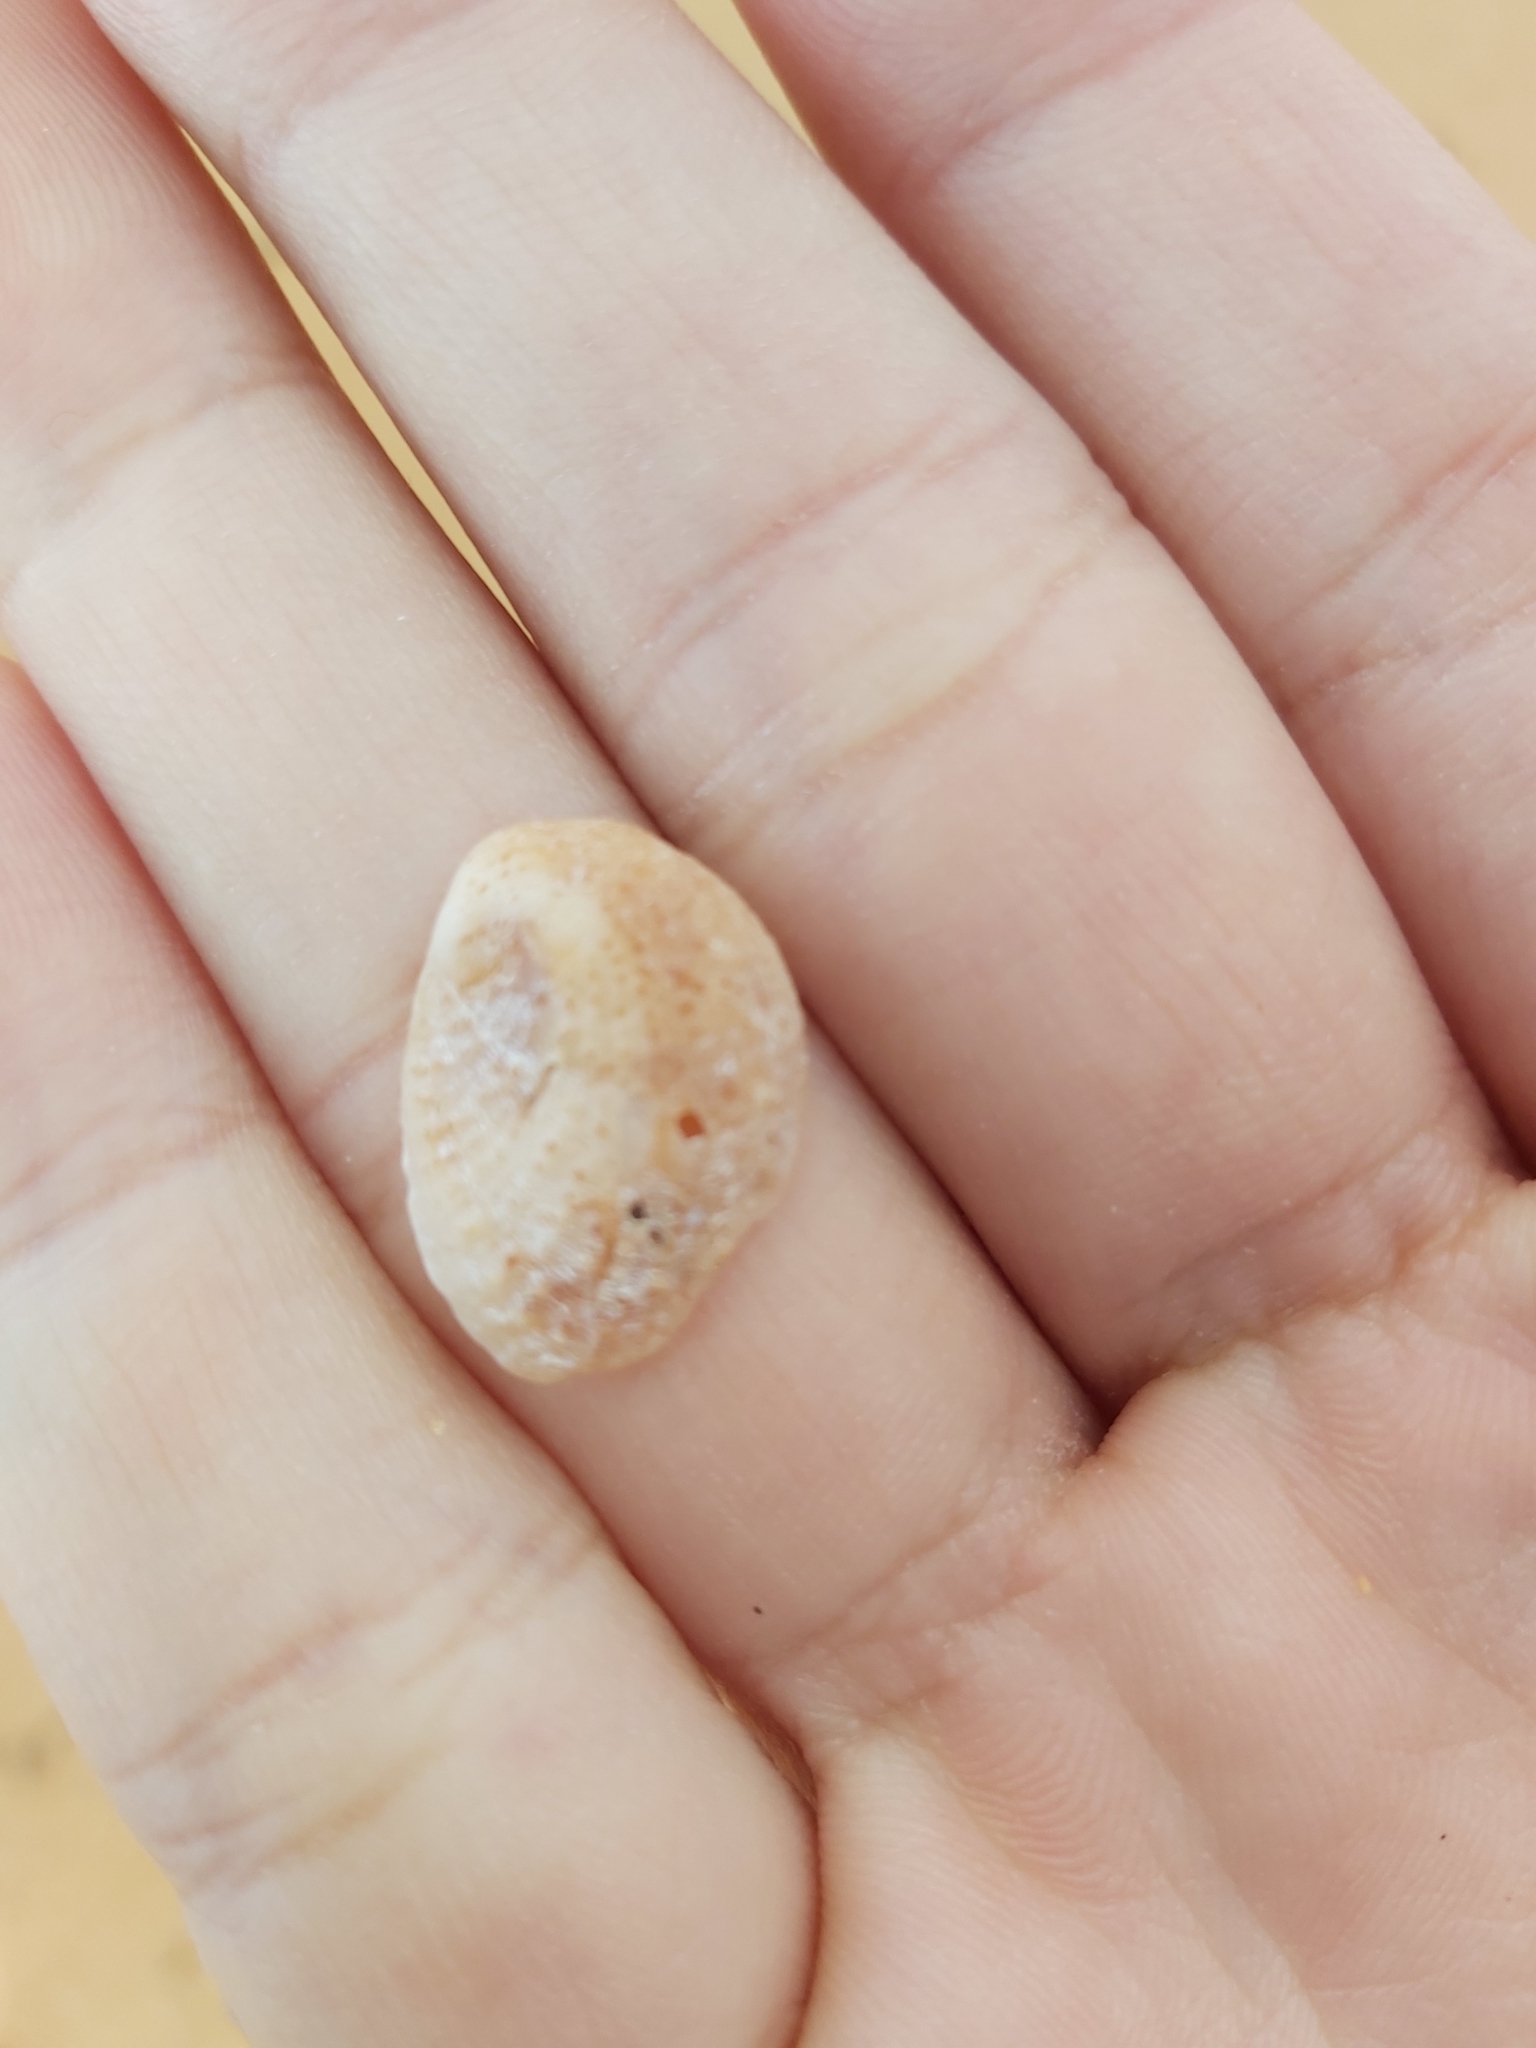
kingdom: Animalia
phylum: Mollusca
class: Gastropoda
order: Littorinimorpha
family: Calyptraeidae
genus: Bostrycapulus
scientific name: Bostrycapulus pritzkeri
